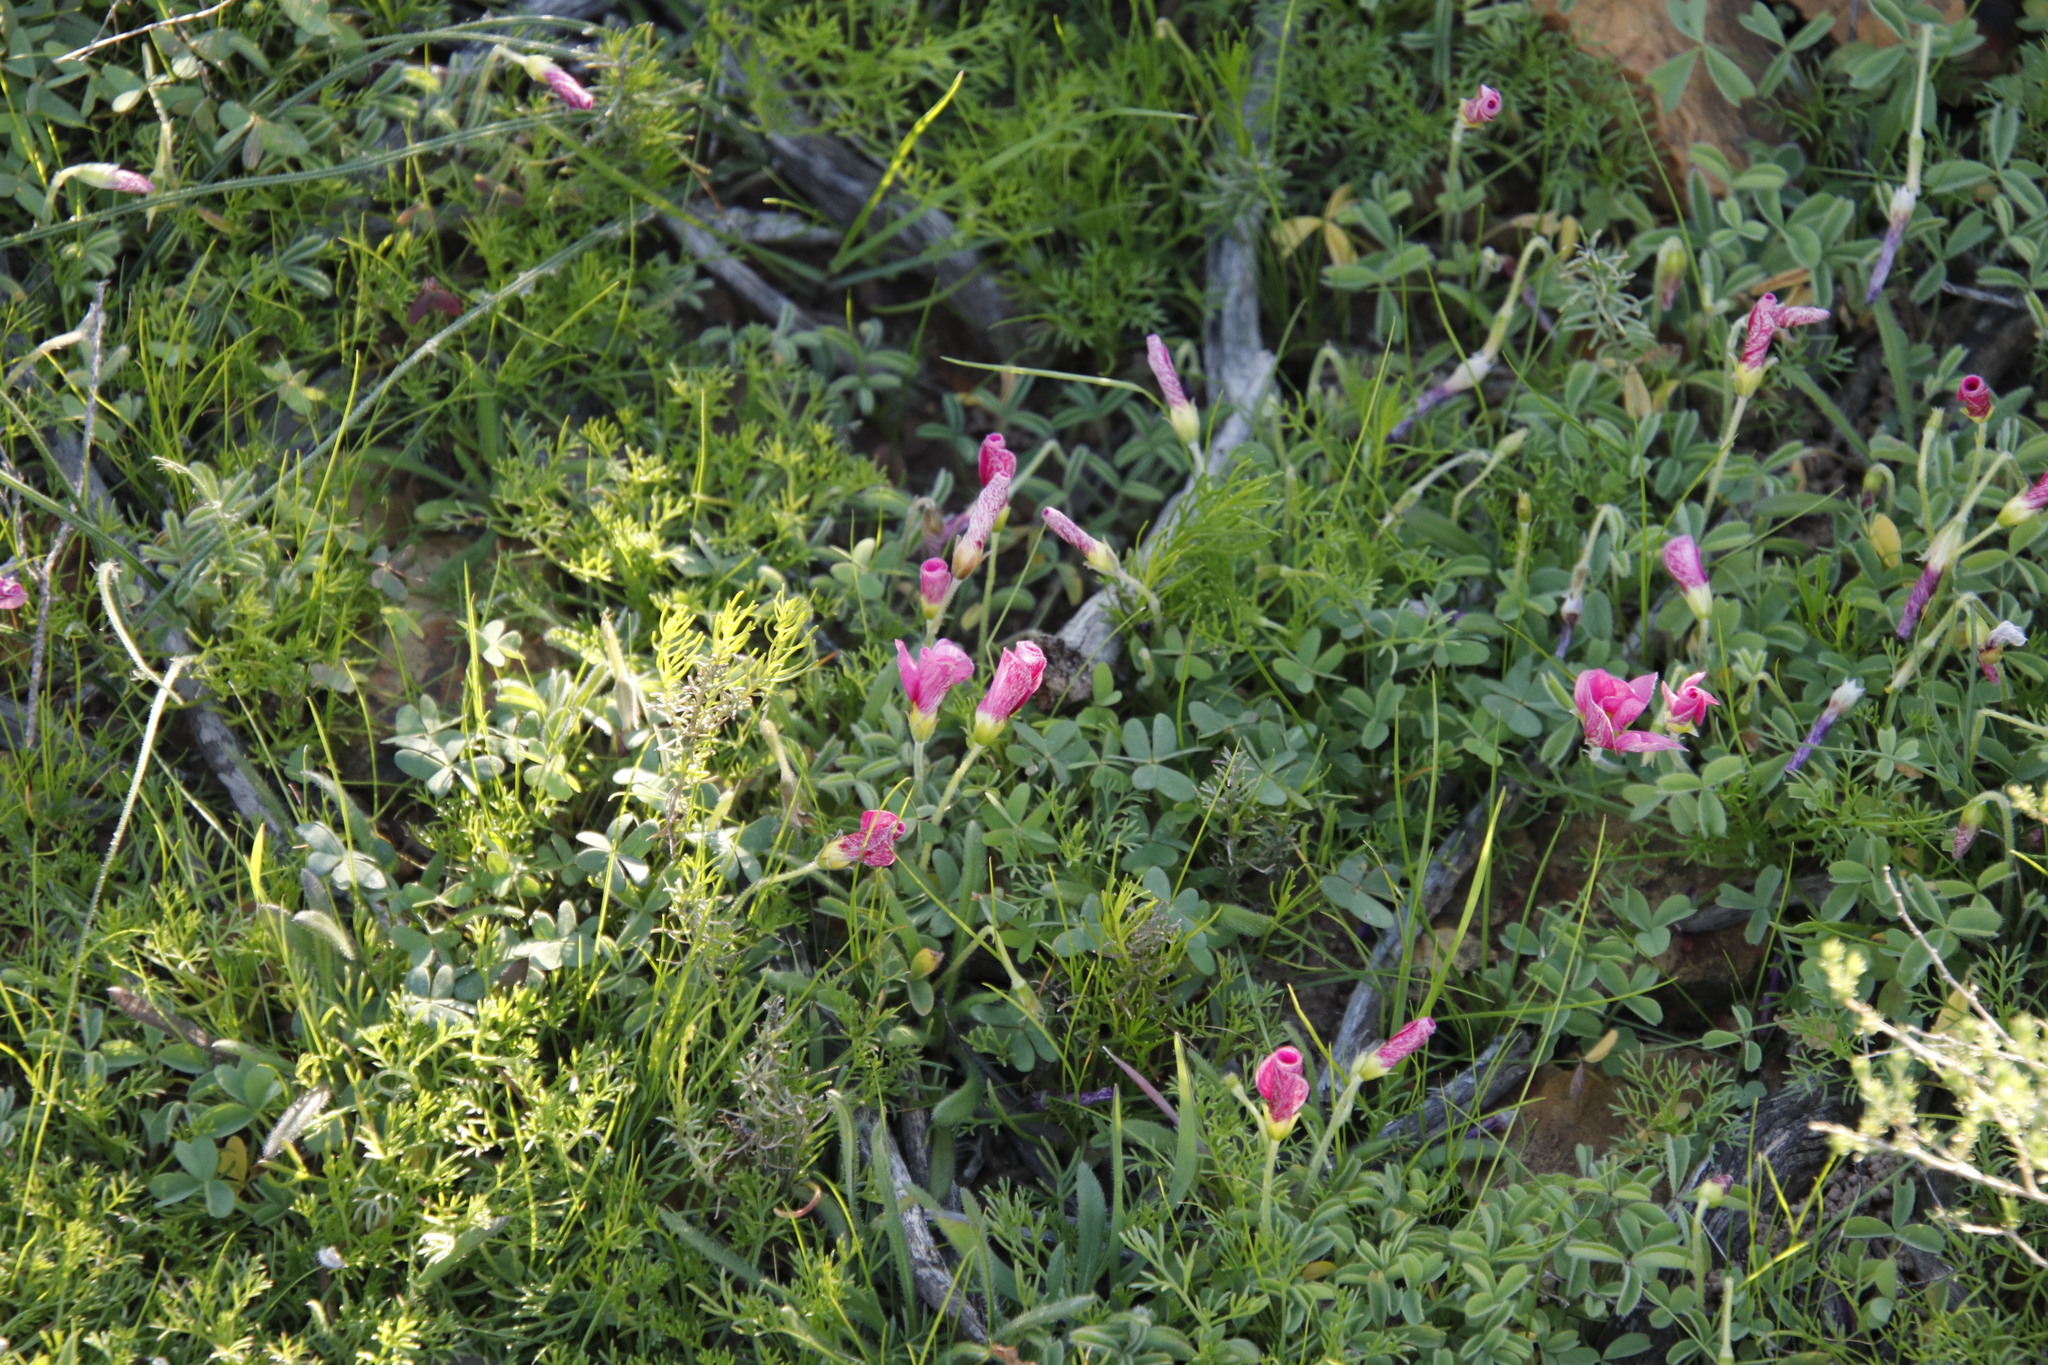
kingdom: Plantae
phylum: Tracheophyta
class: Magnoliopsida
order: Oxalidales
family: Oxalidaceae
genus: Oxalis
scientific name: Oxalis obtusa
